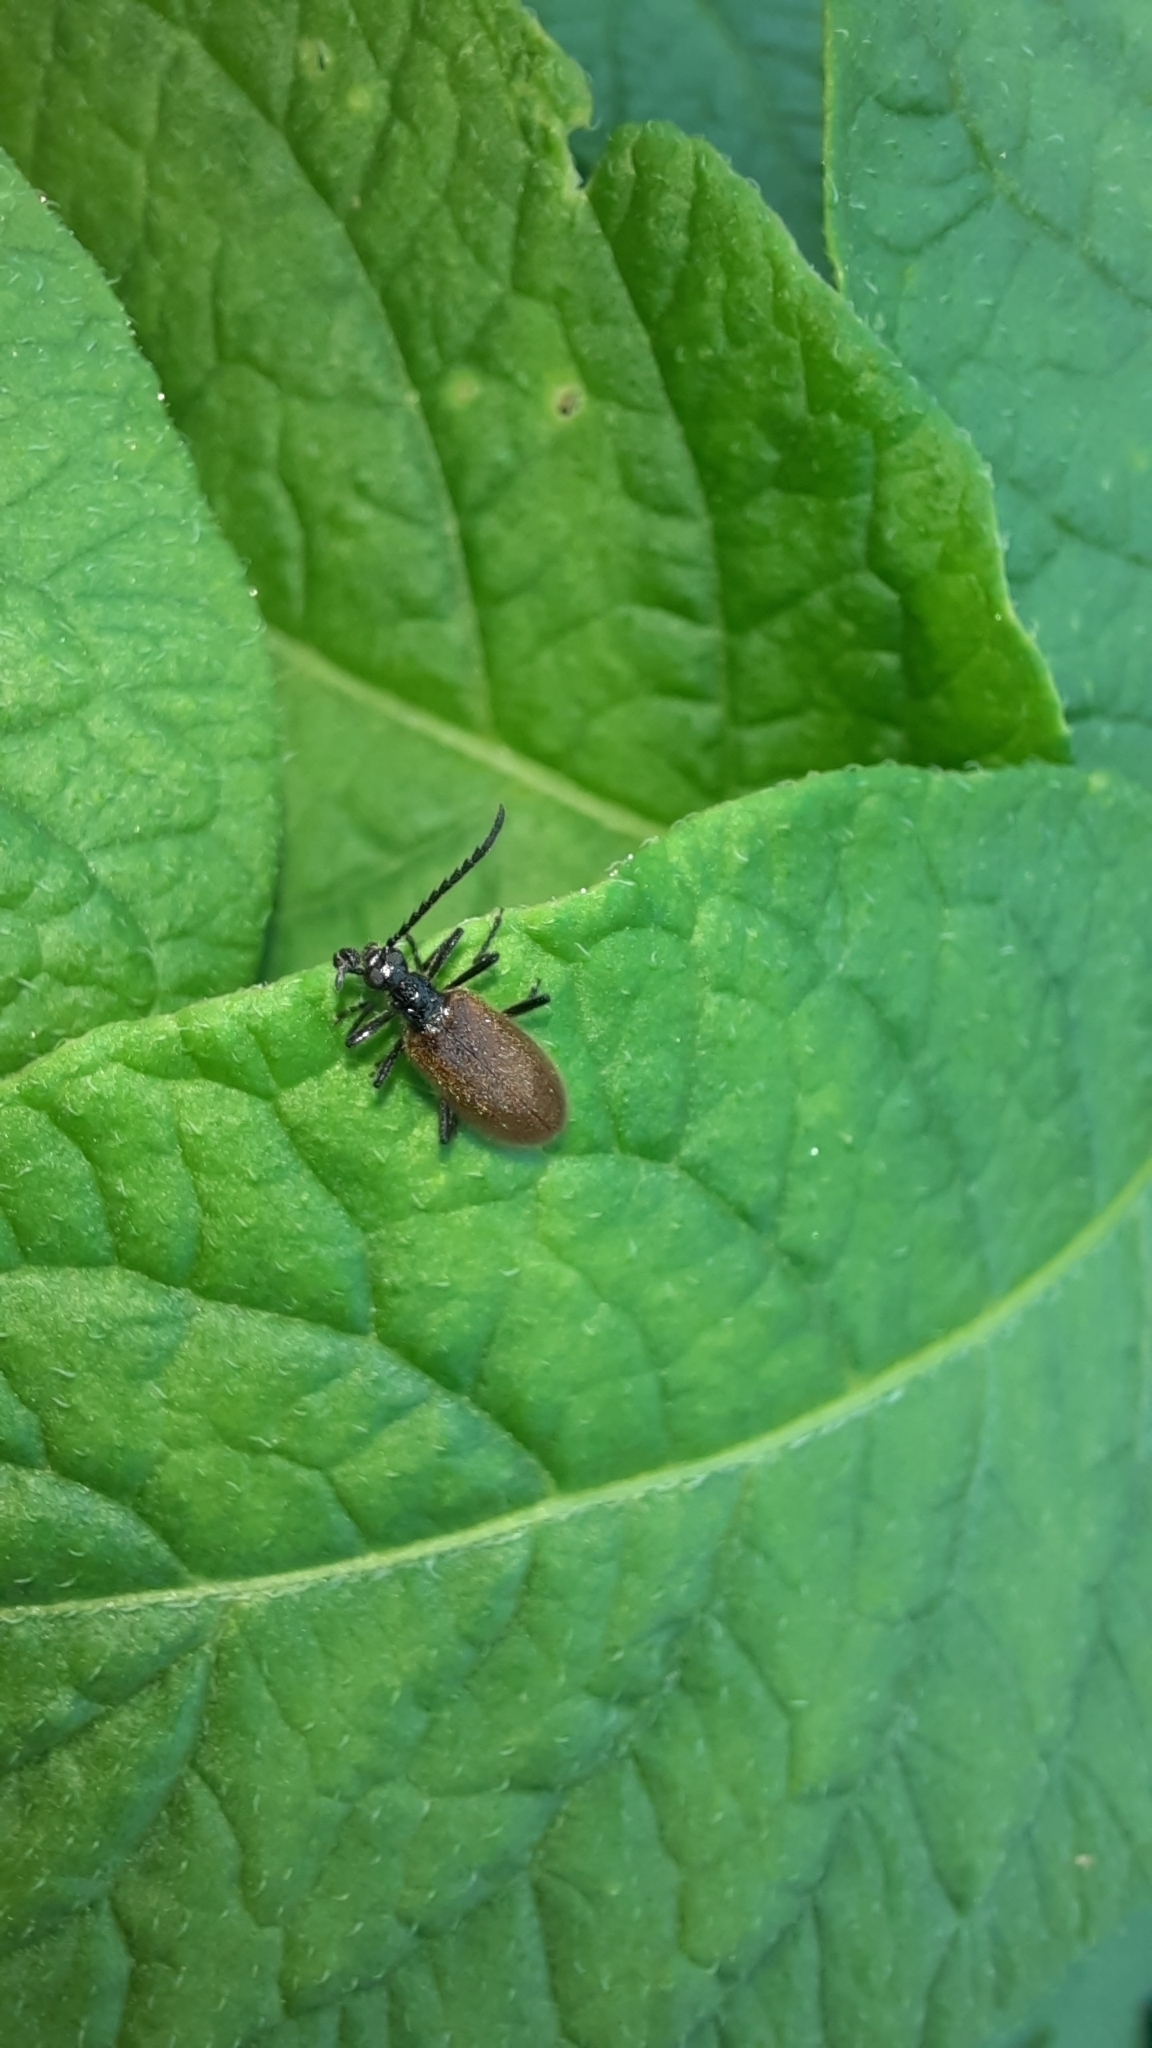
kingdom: Animalia
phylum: Arthropoda
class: Insecta
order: Coleoptera
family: Tenebrionidae
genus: Lagria
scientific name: Lagria hirta
